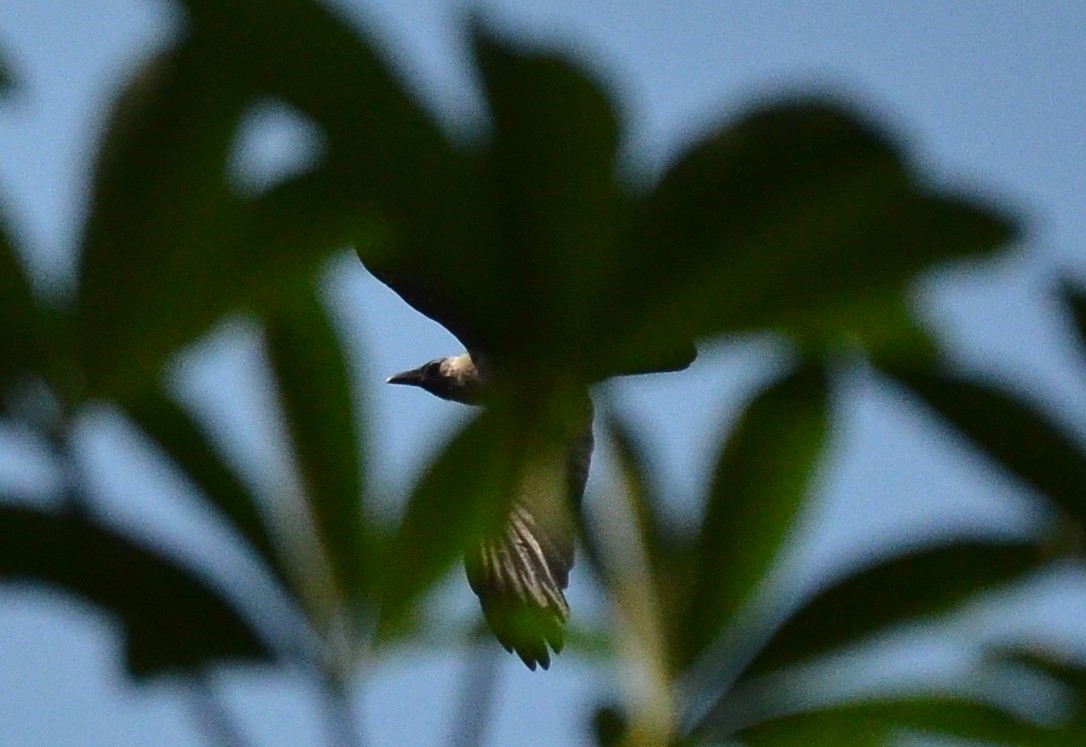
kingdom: Animalia
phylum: Chordata
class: Aves
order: Passeriformes
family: Corvidae
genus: Corvus
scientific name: Corvus splendens
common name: House crow
